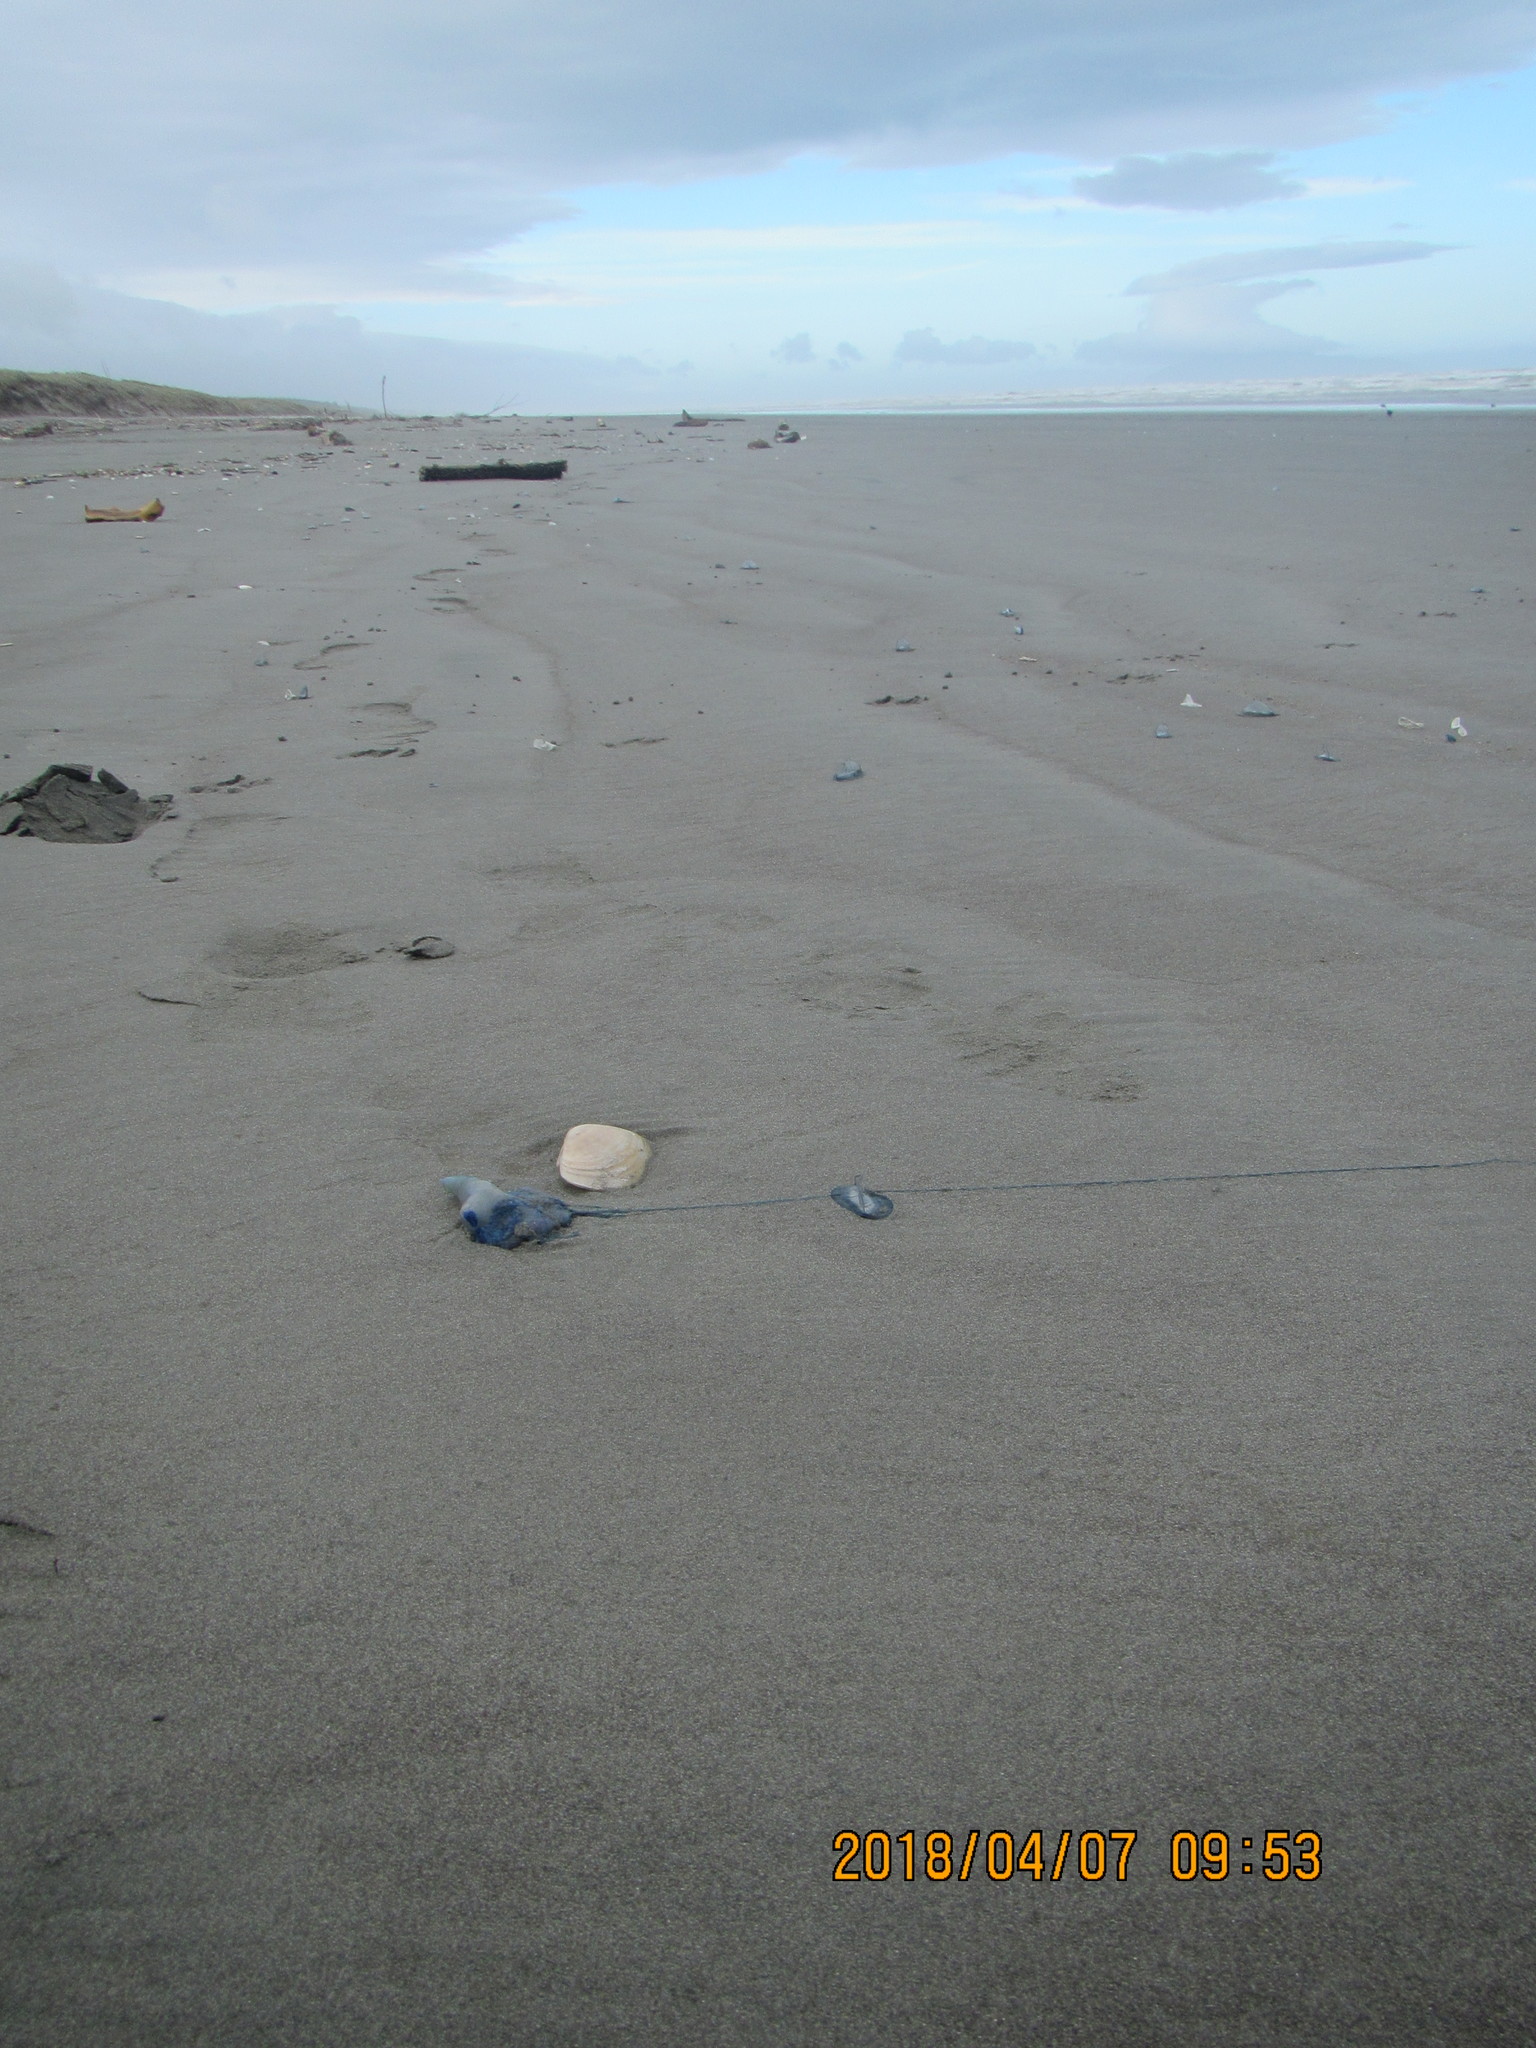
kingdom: Animalia
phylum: Cnidaria
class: Hydrozoa
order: Siphonophorae
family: Physaliidae
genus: Physalia
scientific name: Physalia physalis
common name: Portuguese man-of-war
